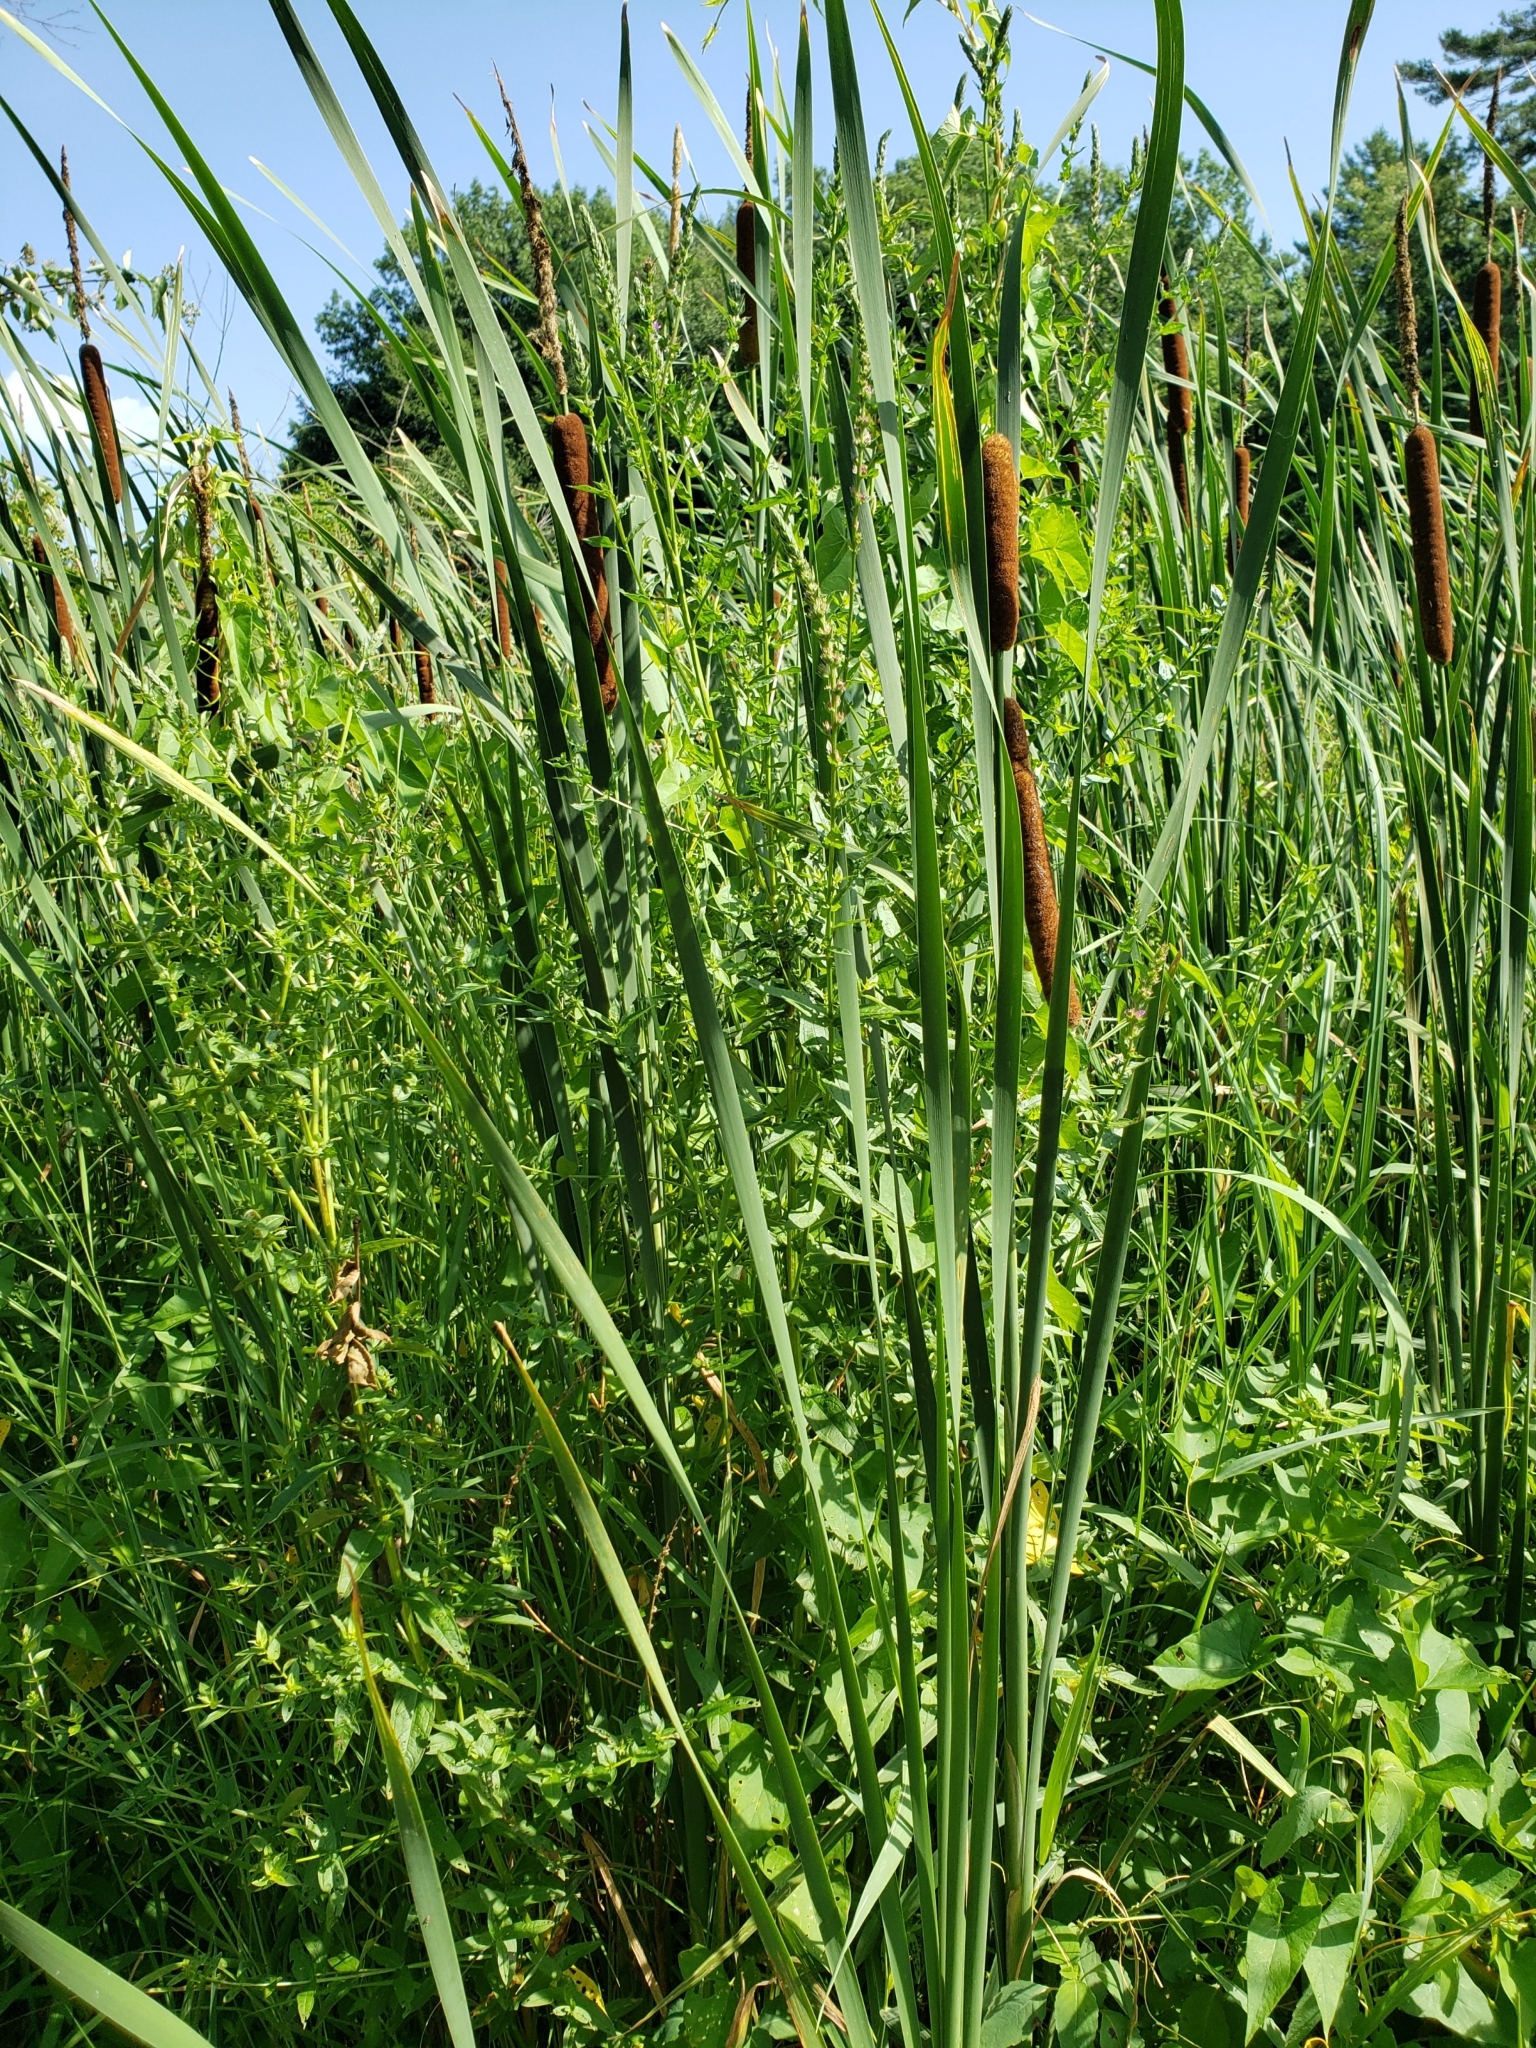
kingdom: Plantae
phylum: Tracheophyta
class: Liliopsida
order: Poales
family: Typhaceae
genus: Typha
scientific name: Typha angustifolia
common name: Lesser bulrush
